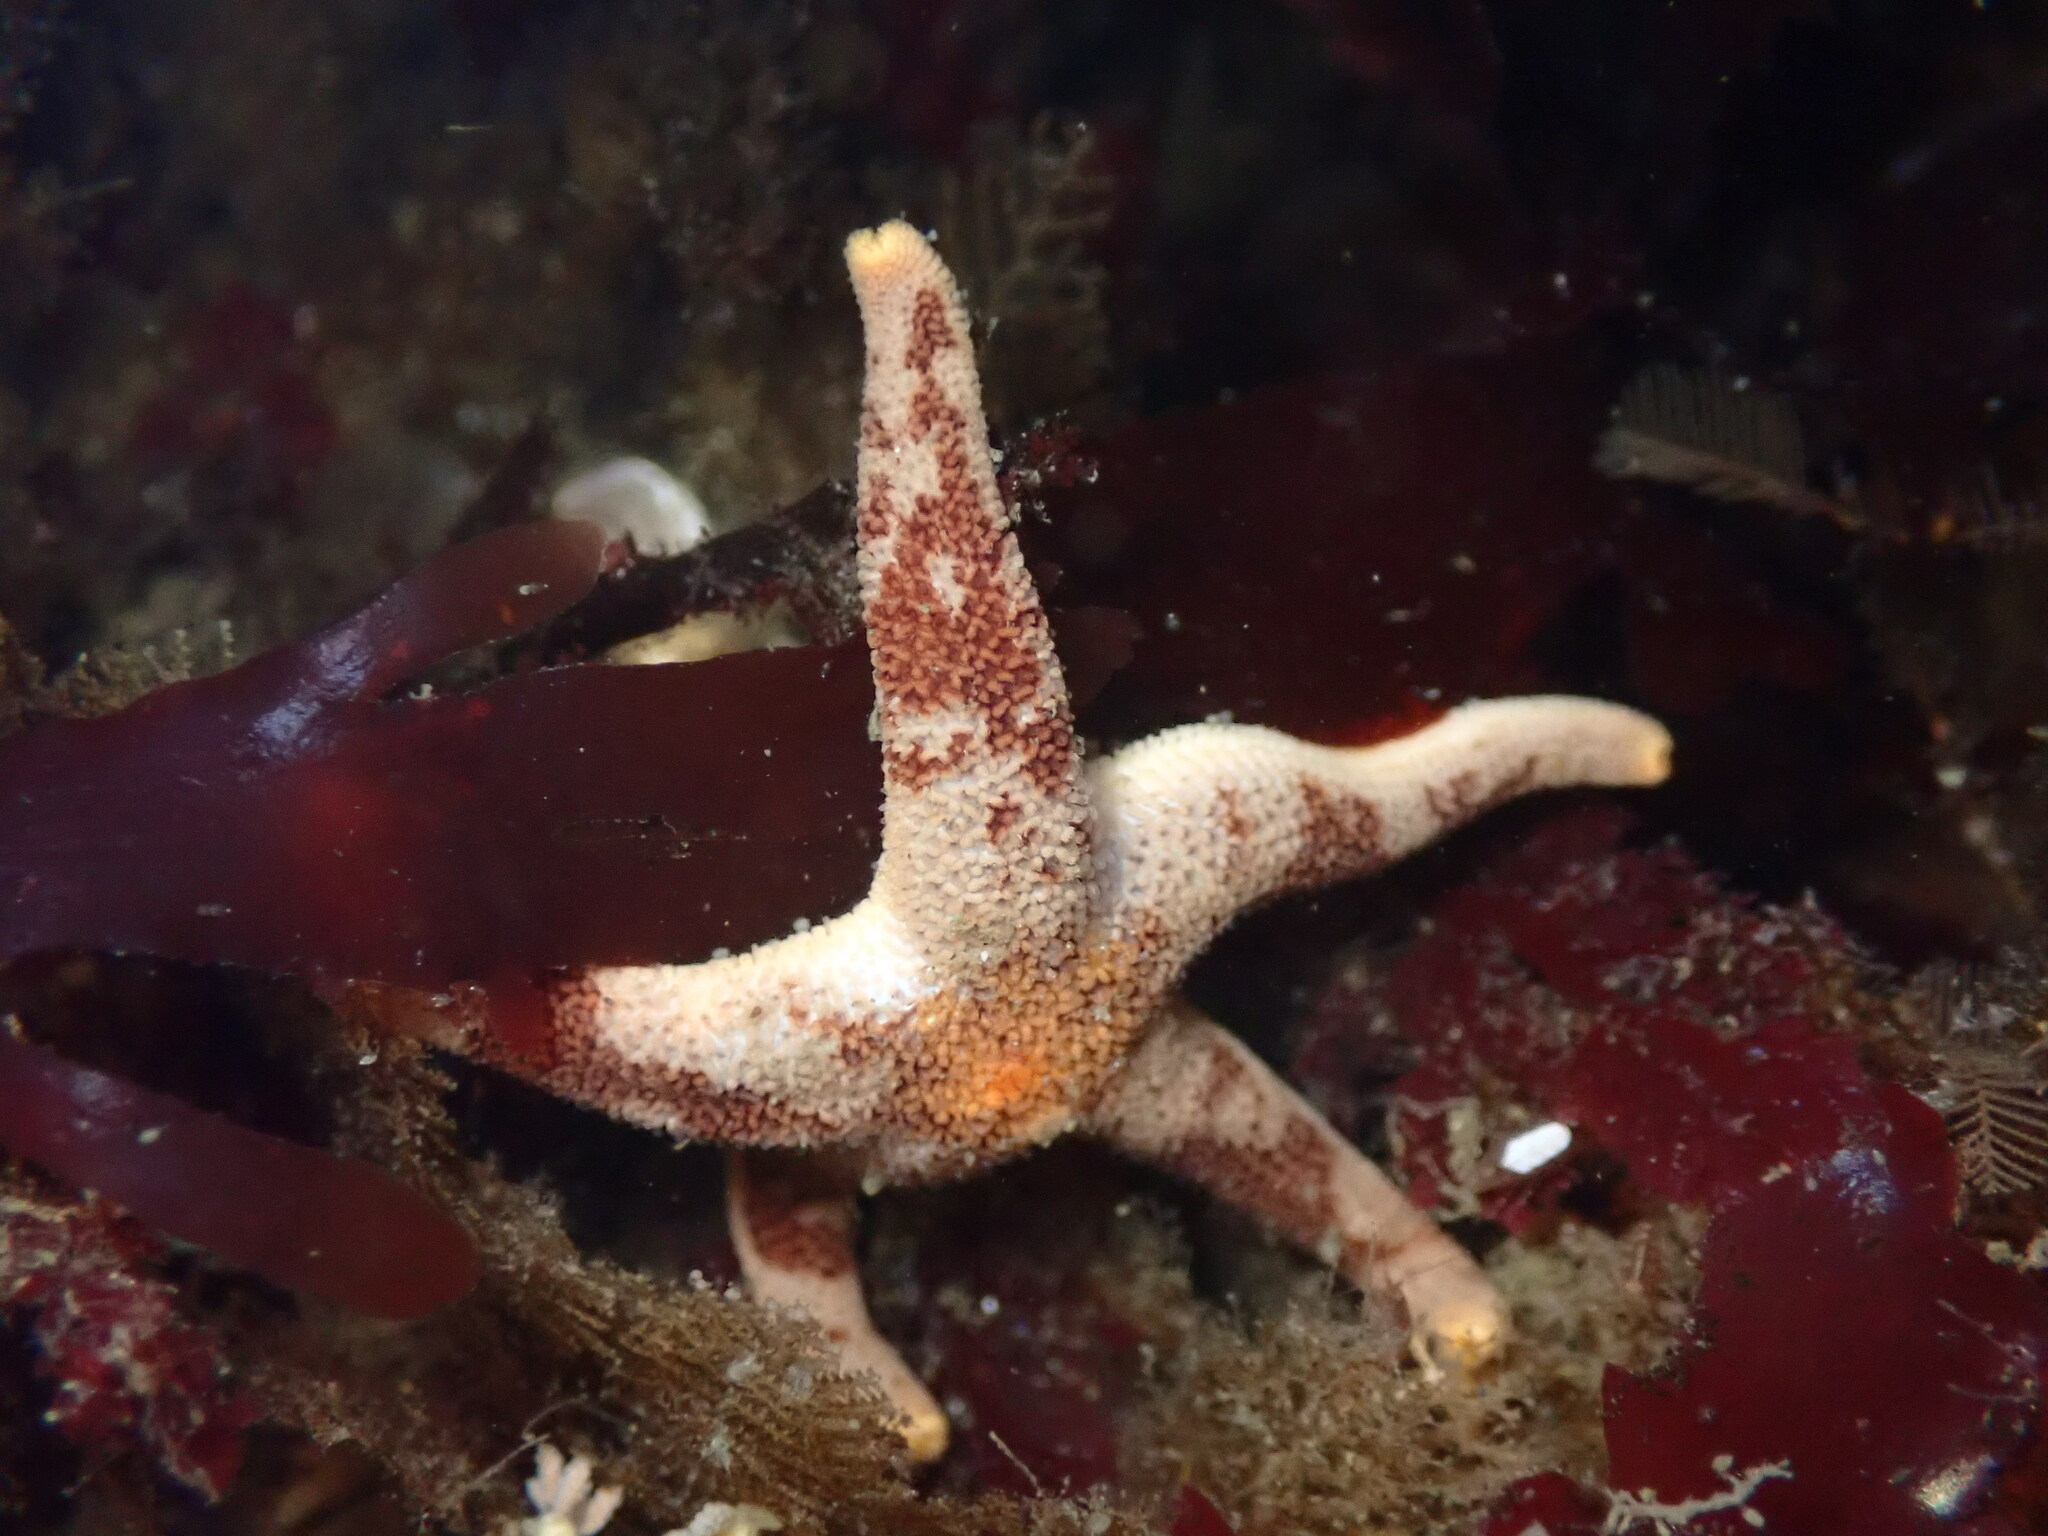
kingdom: Animalia
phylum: Echinodermata
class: Asteroidea
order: Spinulosida
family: Echinasteridae
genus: Henricia
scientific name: Henricia pumila
